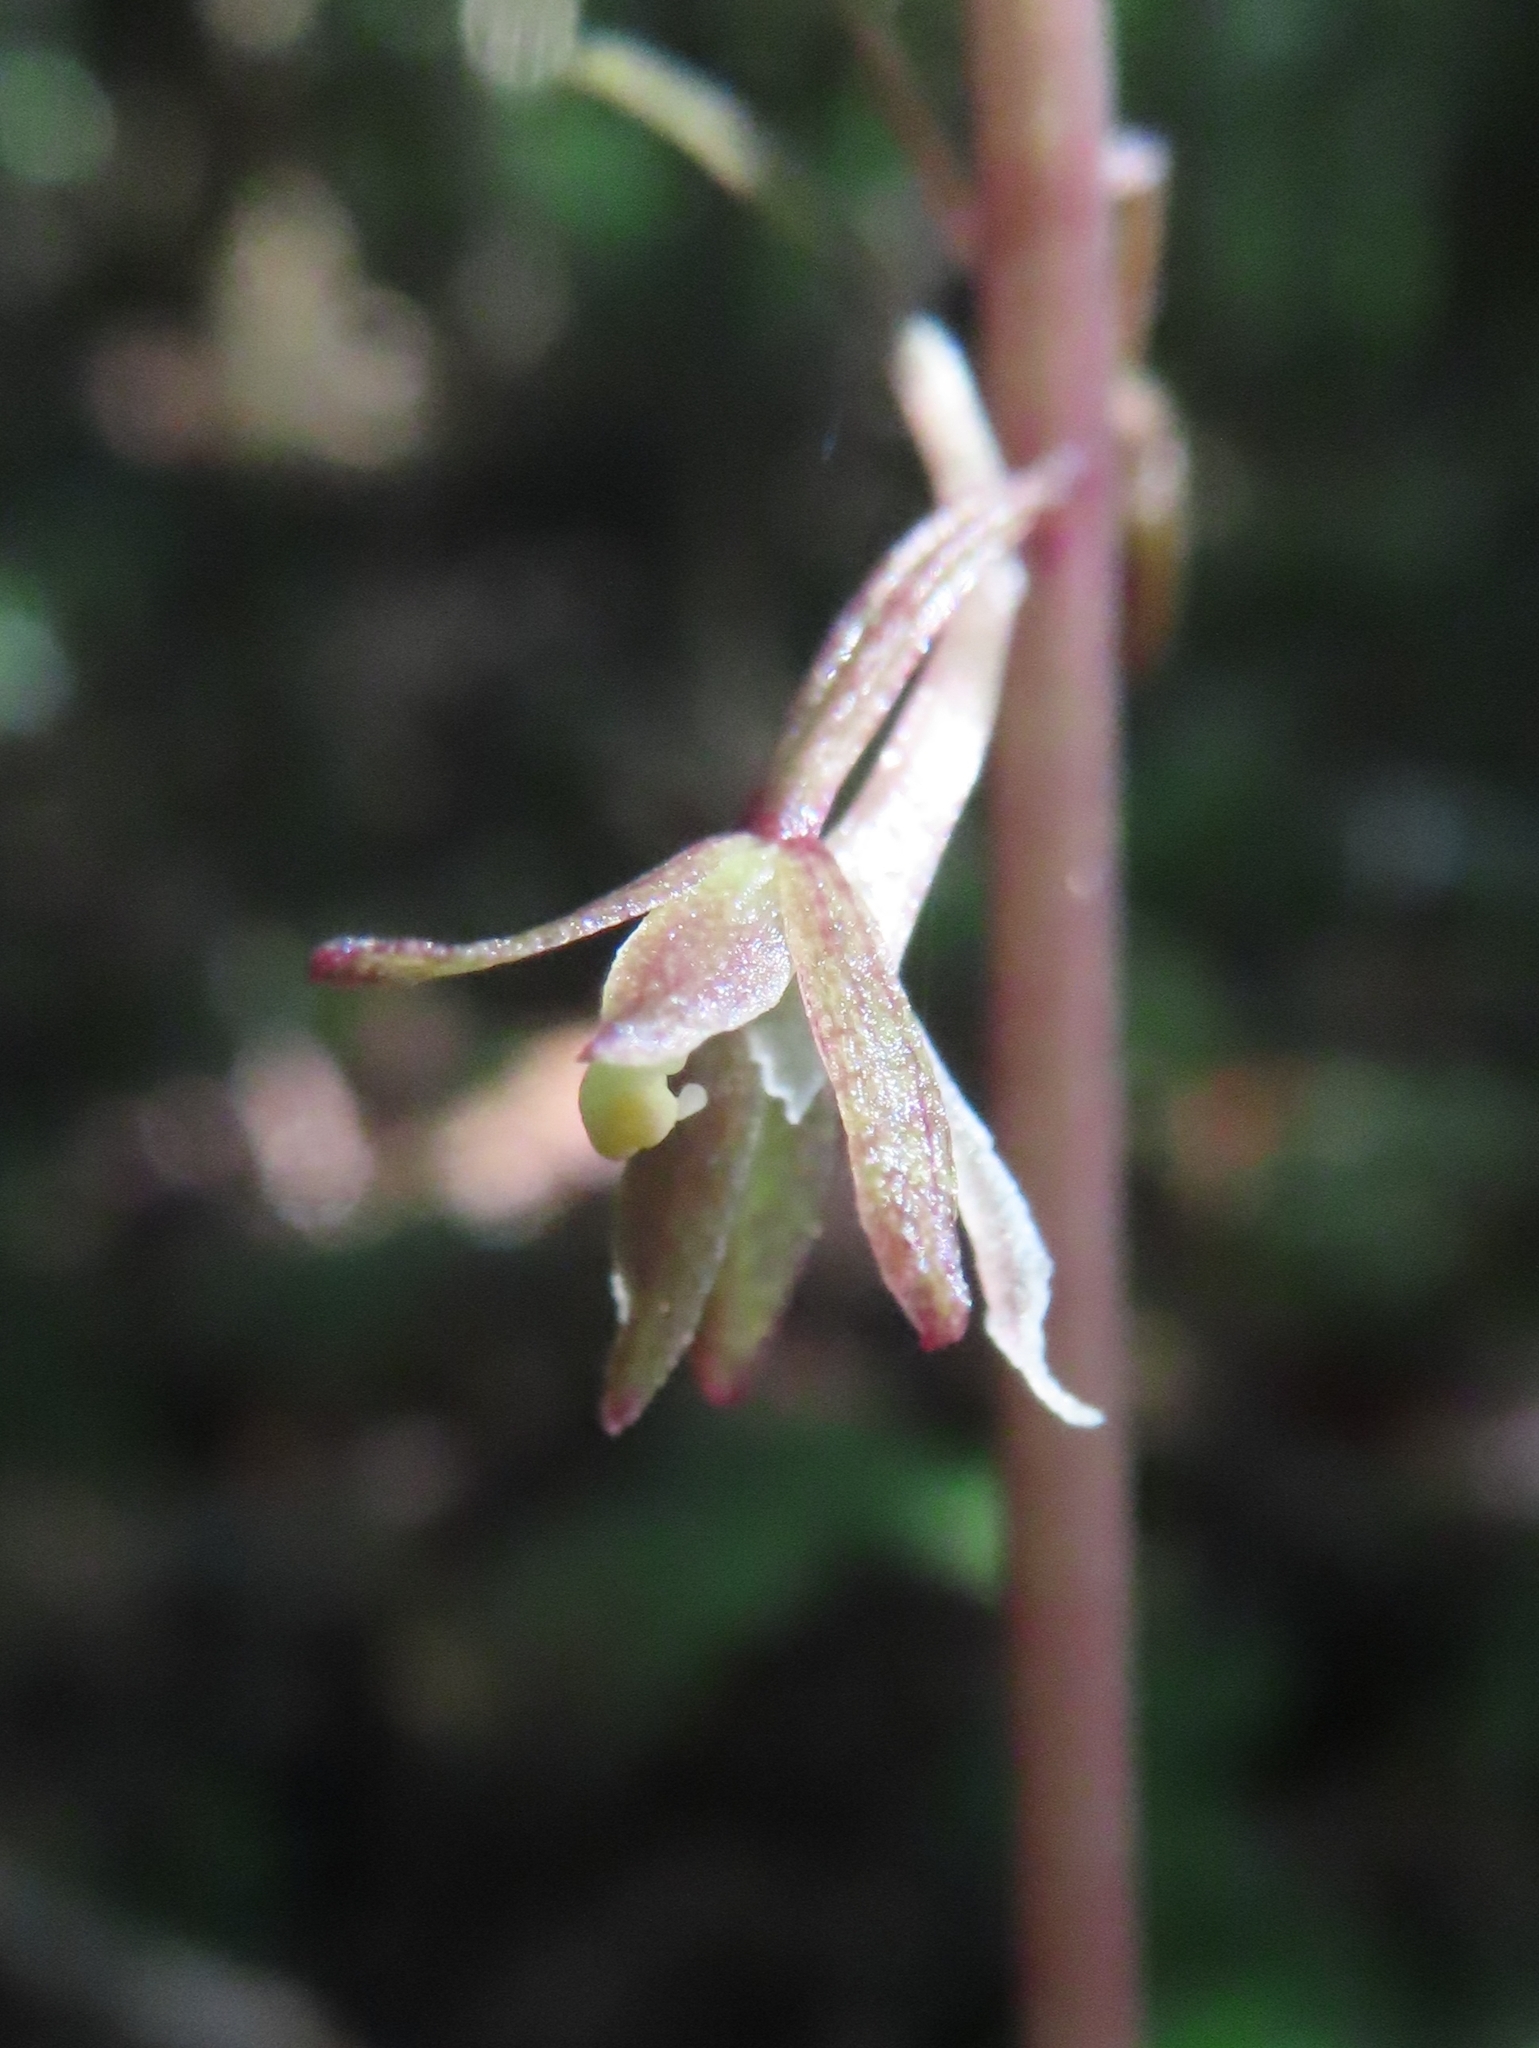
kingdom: Plantae
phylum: Tracheophyta
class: Liliopsida
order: Asparagales
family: Orchidaceae
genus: Tipularia
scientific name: Tipularia discolor
